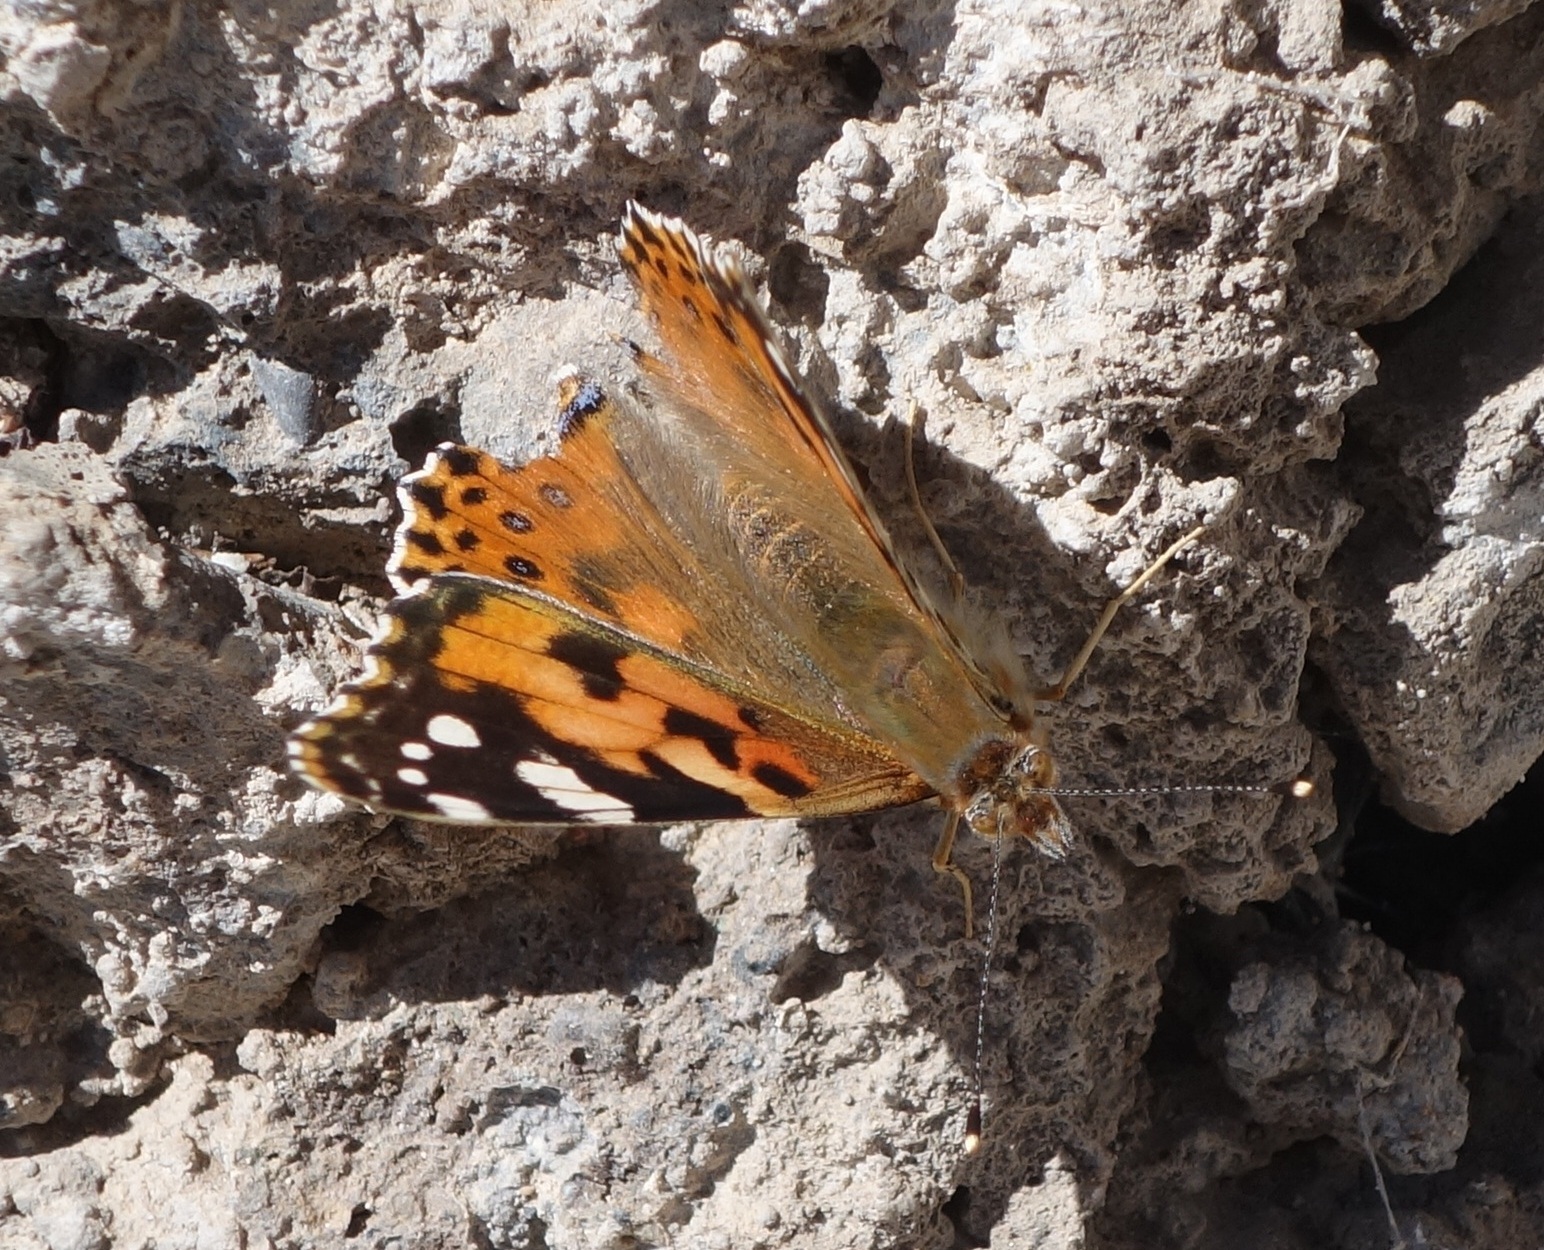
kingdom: Animalia
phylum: Arthropoda
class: Insecta
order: Lepidoptera
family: Nymphalidae
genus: Vanessa
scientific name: Vanessa cardui
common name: Painted lady
